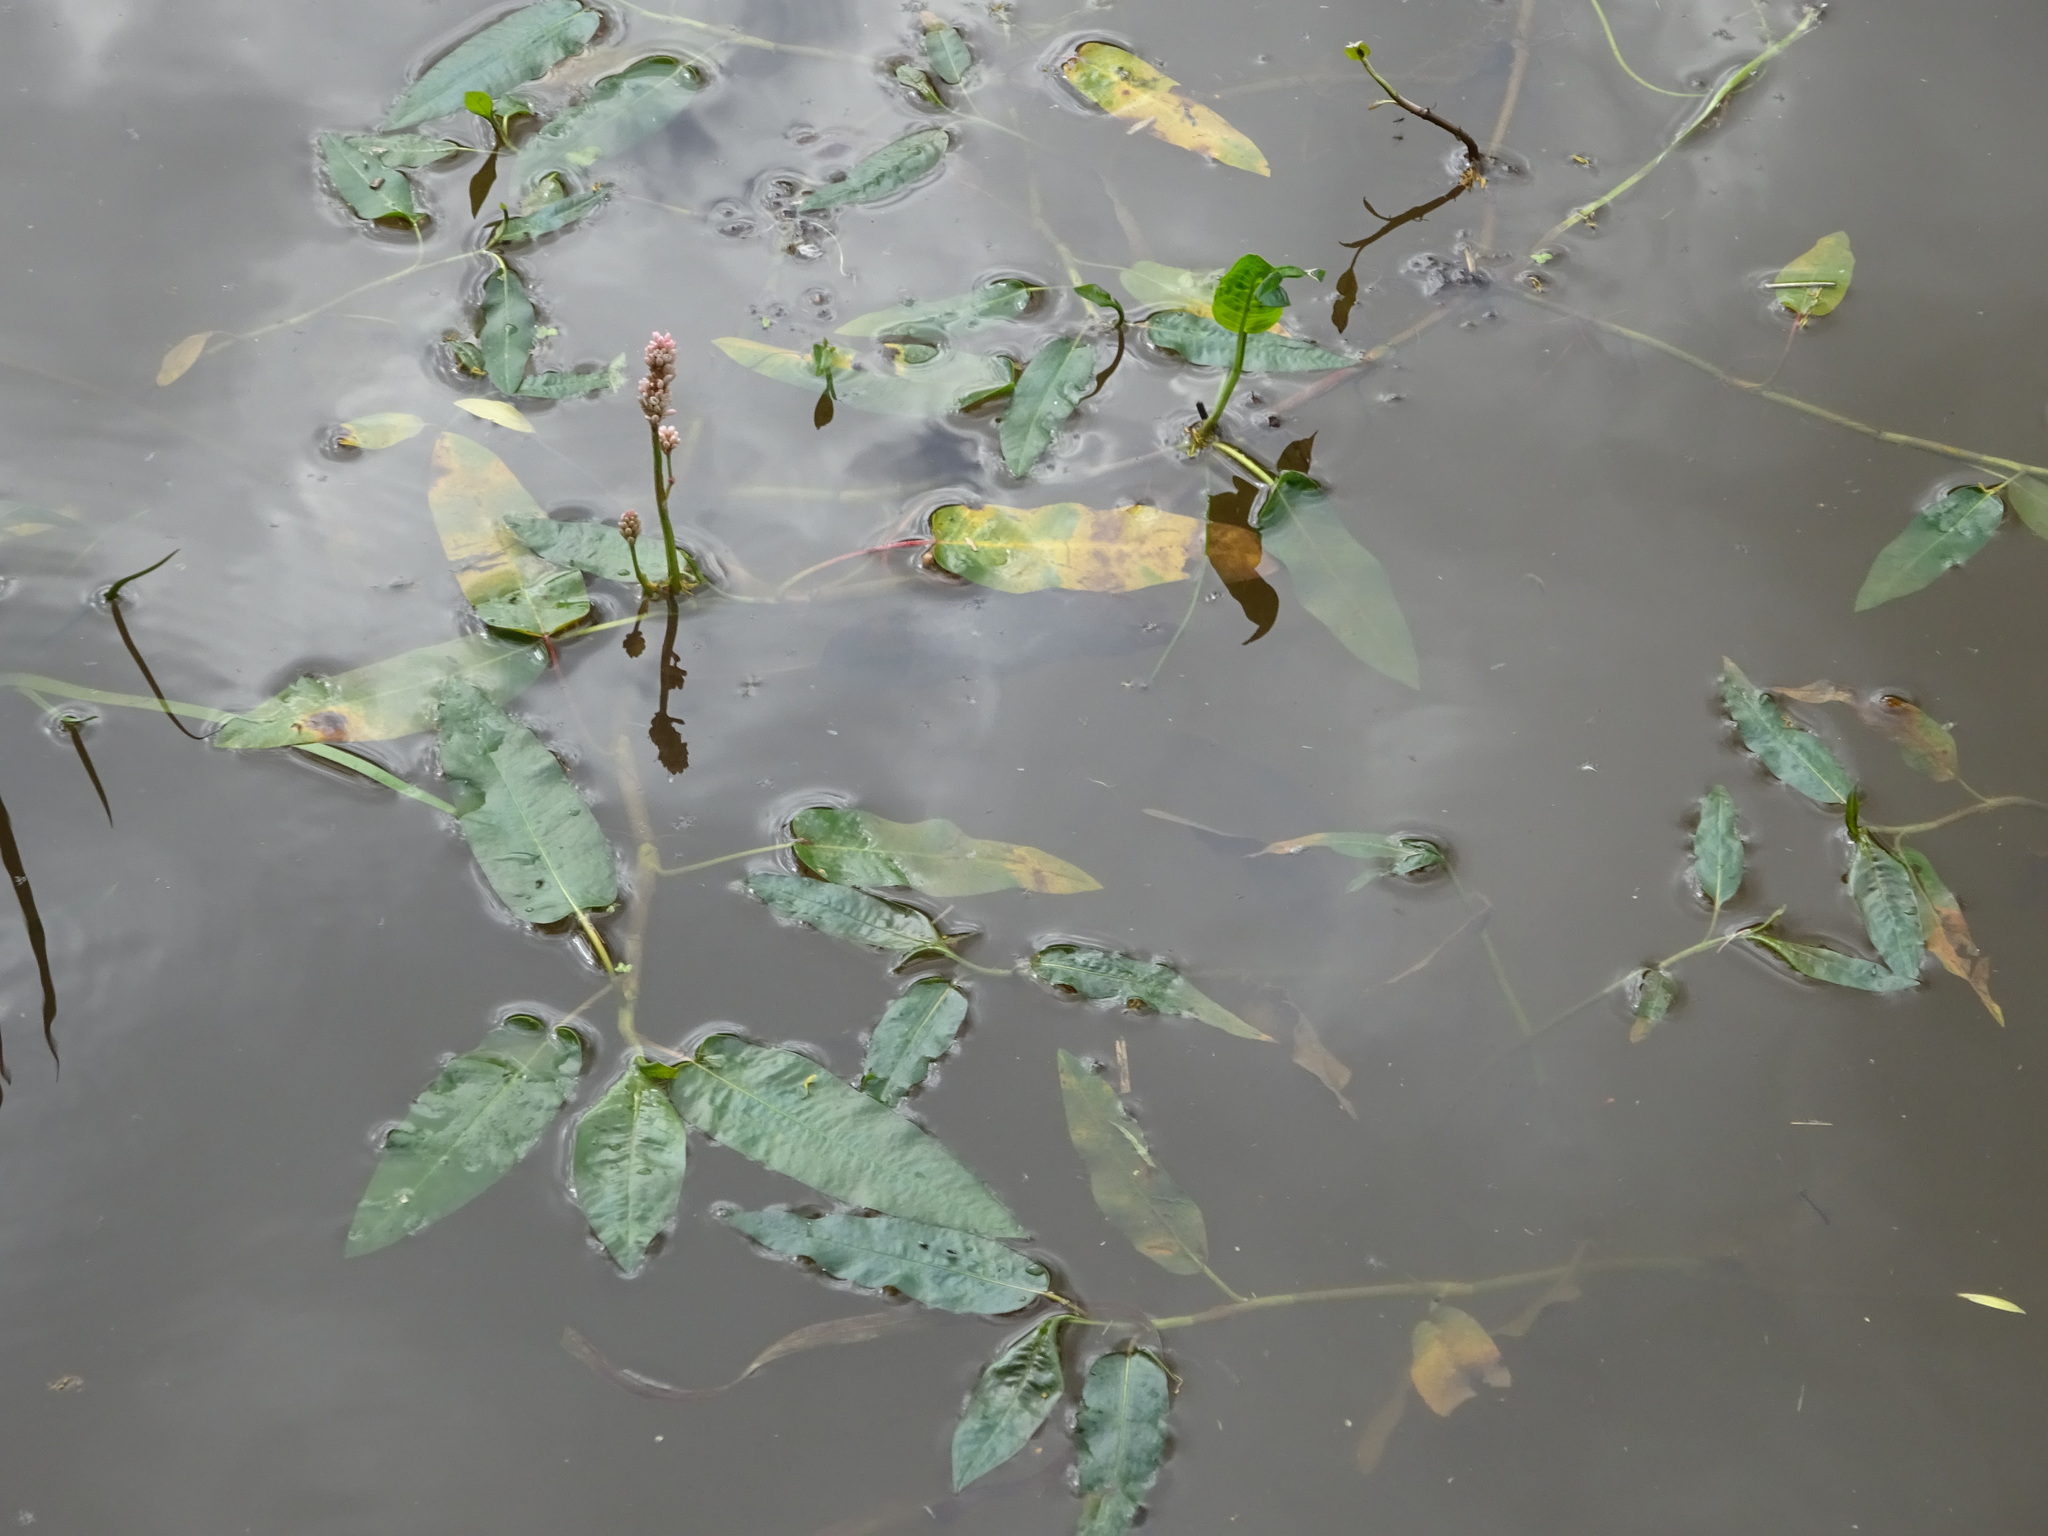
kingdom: Plantae
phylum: Tracheophyta
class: Magnoliopsida
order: Caryophyllales
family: Polygonaceae
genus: Persicaria
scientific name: Persicaria amphibia
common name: Amphibious bistort
